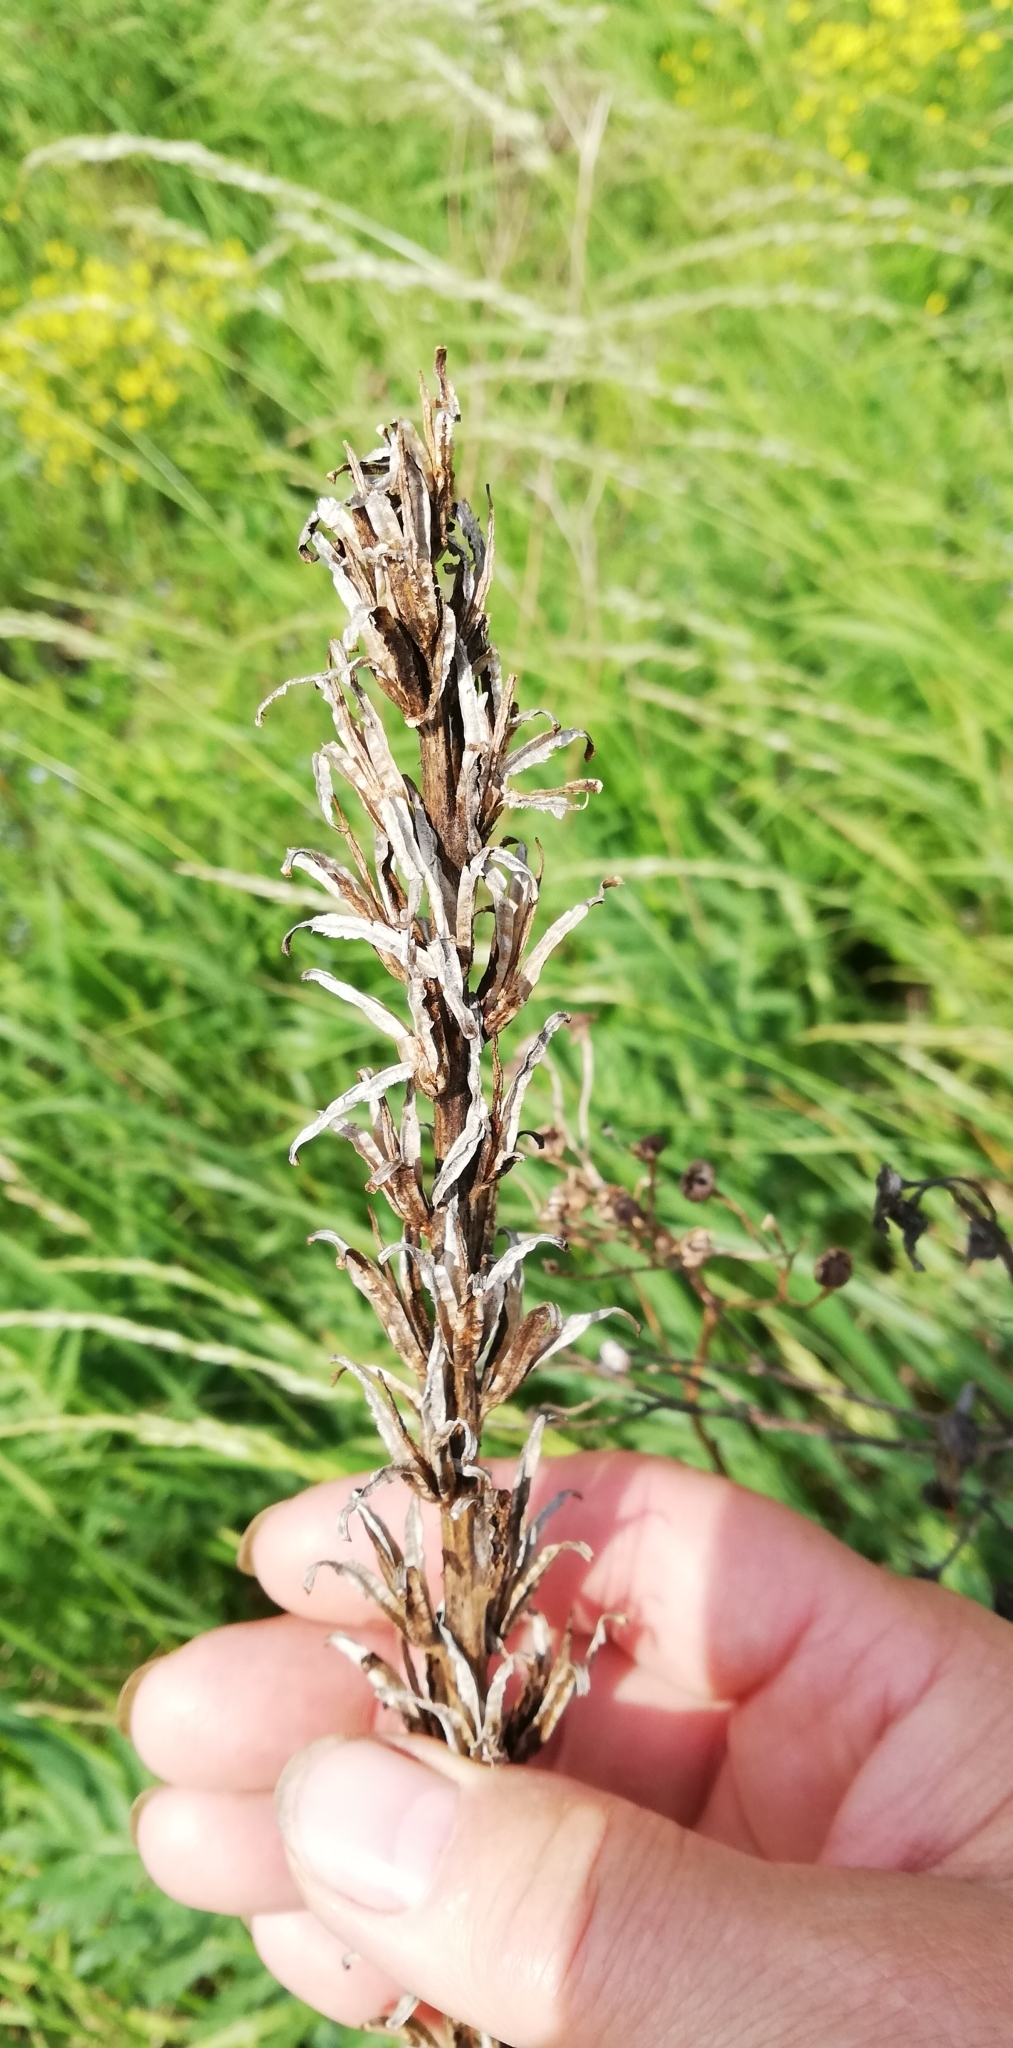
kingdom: Plantae
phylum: Tracheophyta
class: Magnoliopsida
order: Myrtales
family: Onagraceae
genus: Oenothera
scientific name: Oenothera
